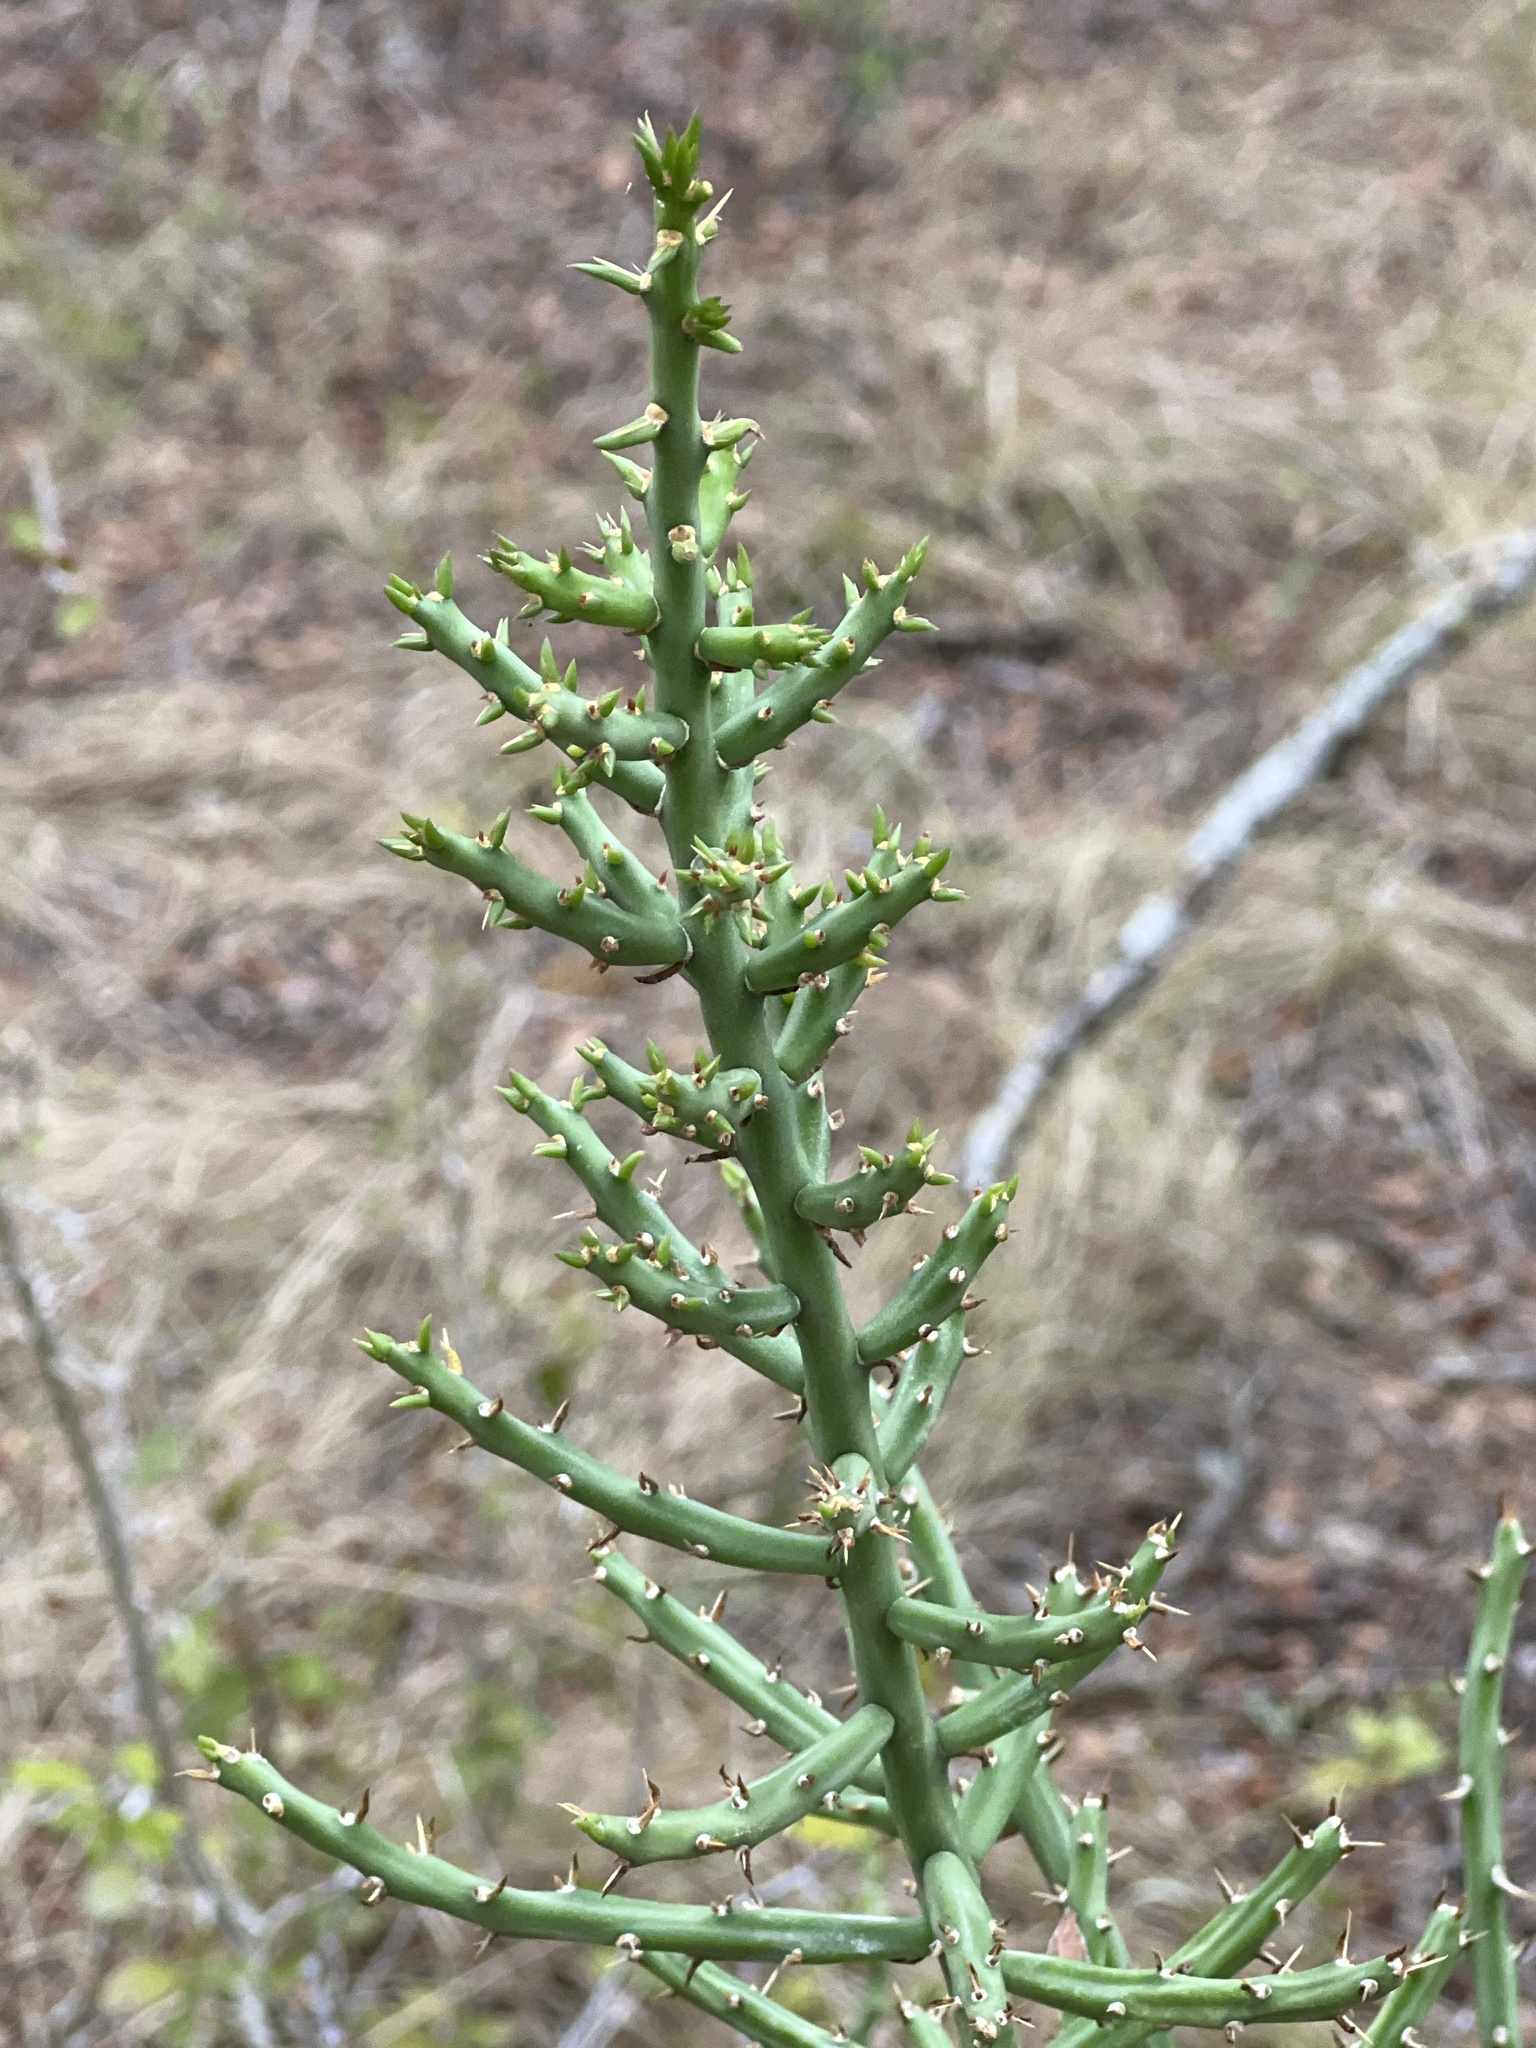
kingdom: Plantae
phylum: Tracheophyta
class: Magnoliopsida
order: Caryophyllales
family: Cactaceae
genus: Cylindropuntia
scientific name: Cylindropuntia leptocaulis
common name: Christmas cactus
